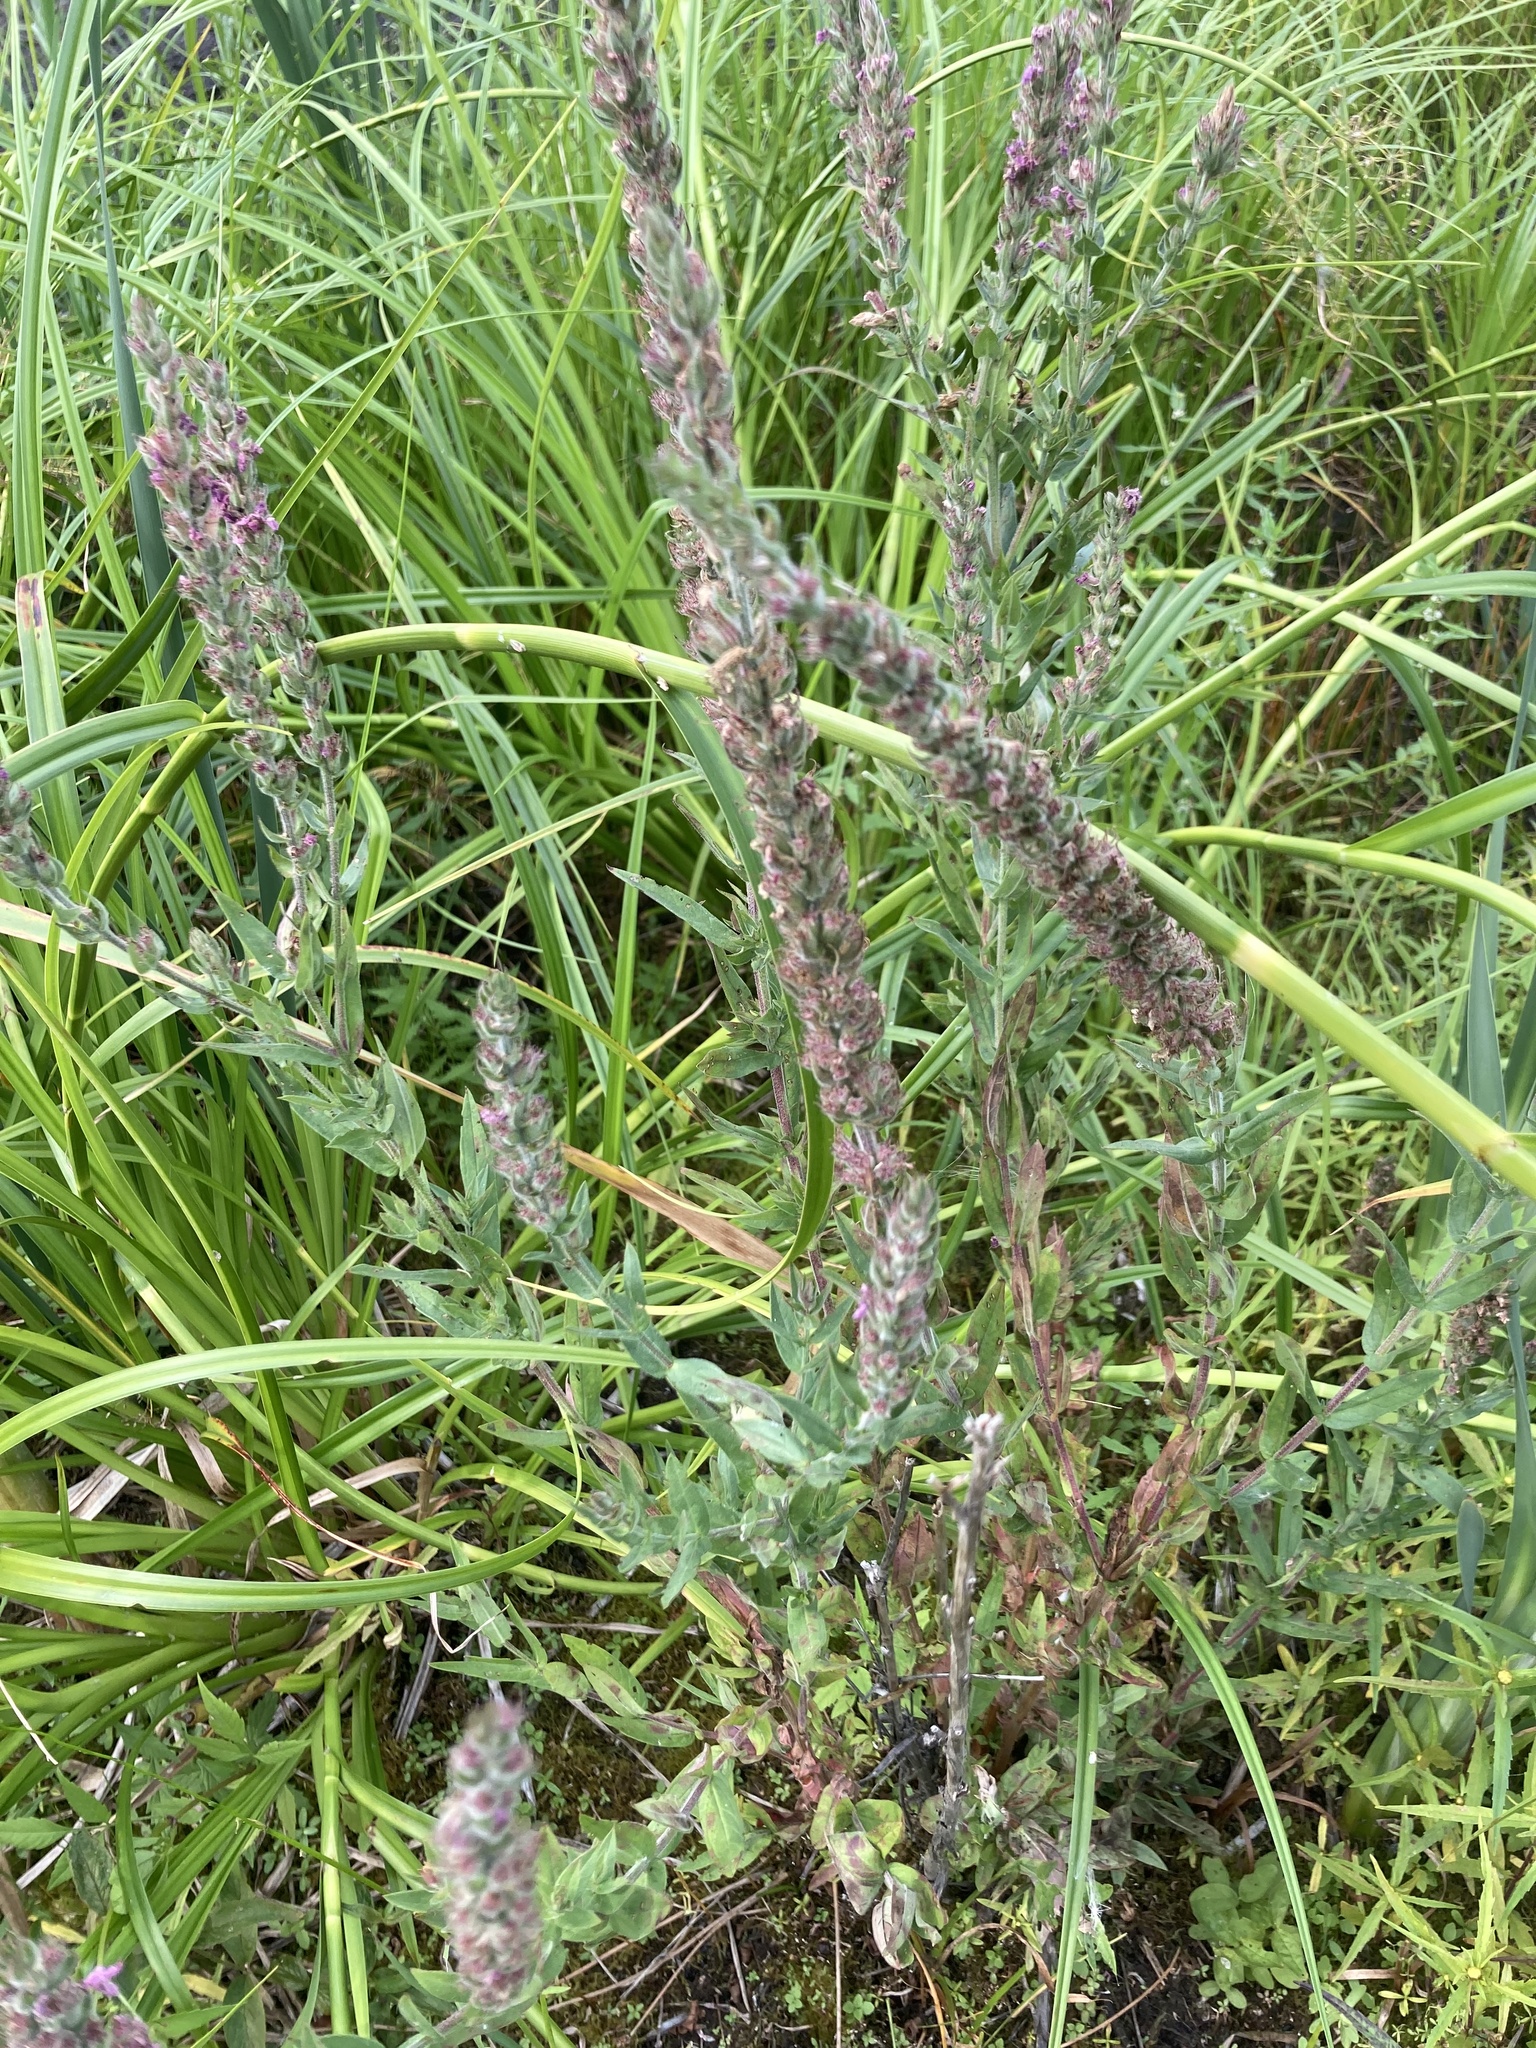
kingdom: Plantae
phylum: Tracheophyta
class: Magnoliopsida
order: Myrtales
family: Lythraceae
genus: Lythrum
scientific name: Lythrum salicaria
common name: Purple loosestrife
